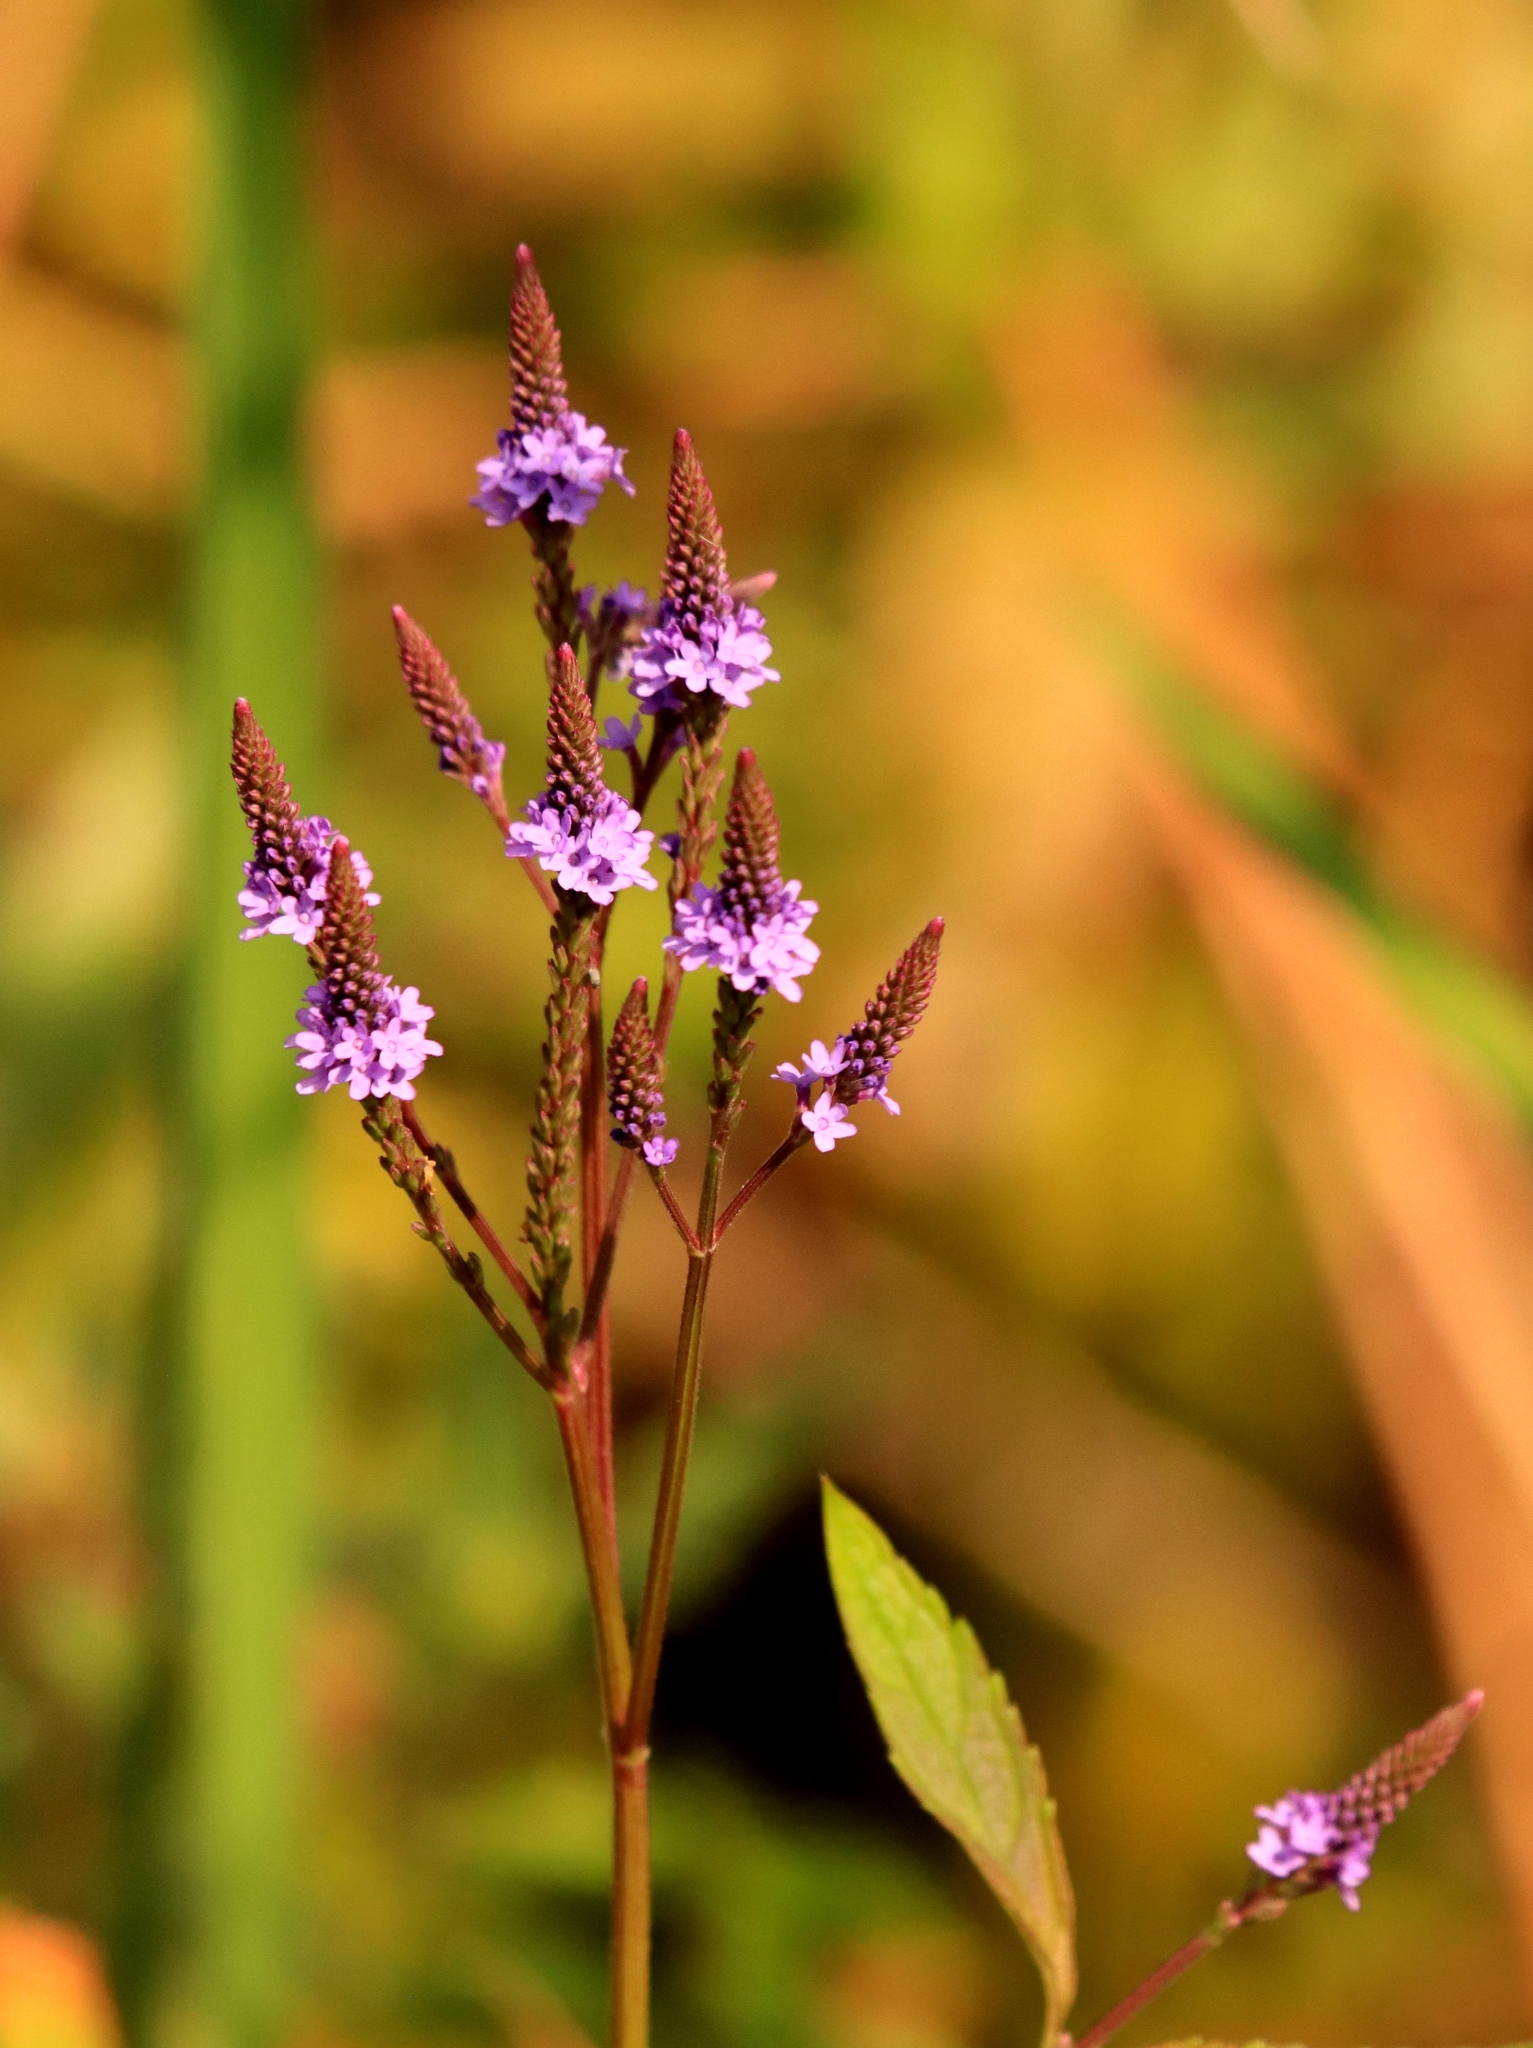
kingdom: Plantae
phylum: Tracheophyta
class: Magnoliopsida
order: Lamiales
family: Verbenaceae
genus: Verbena
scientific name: Verbena hastata
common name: American blue vervain
